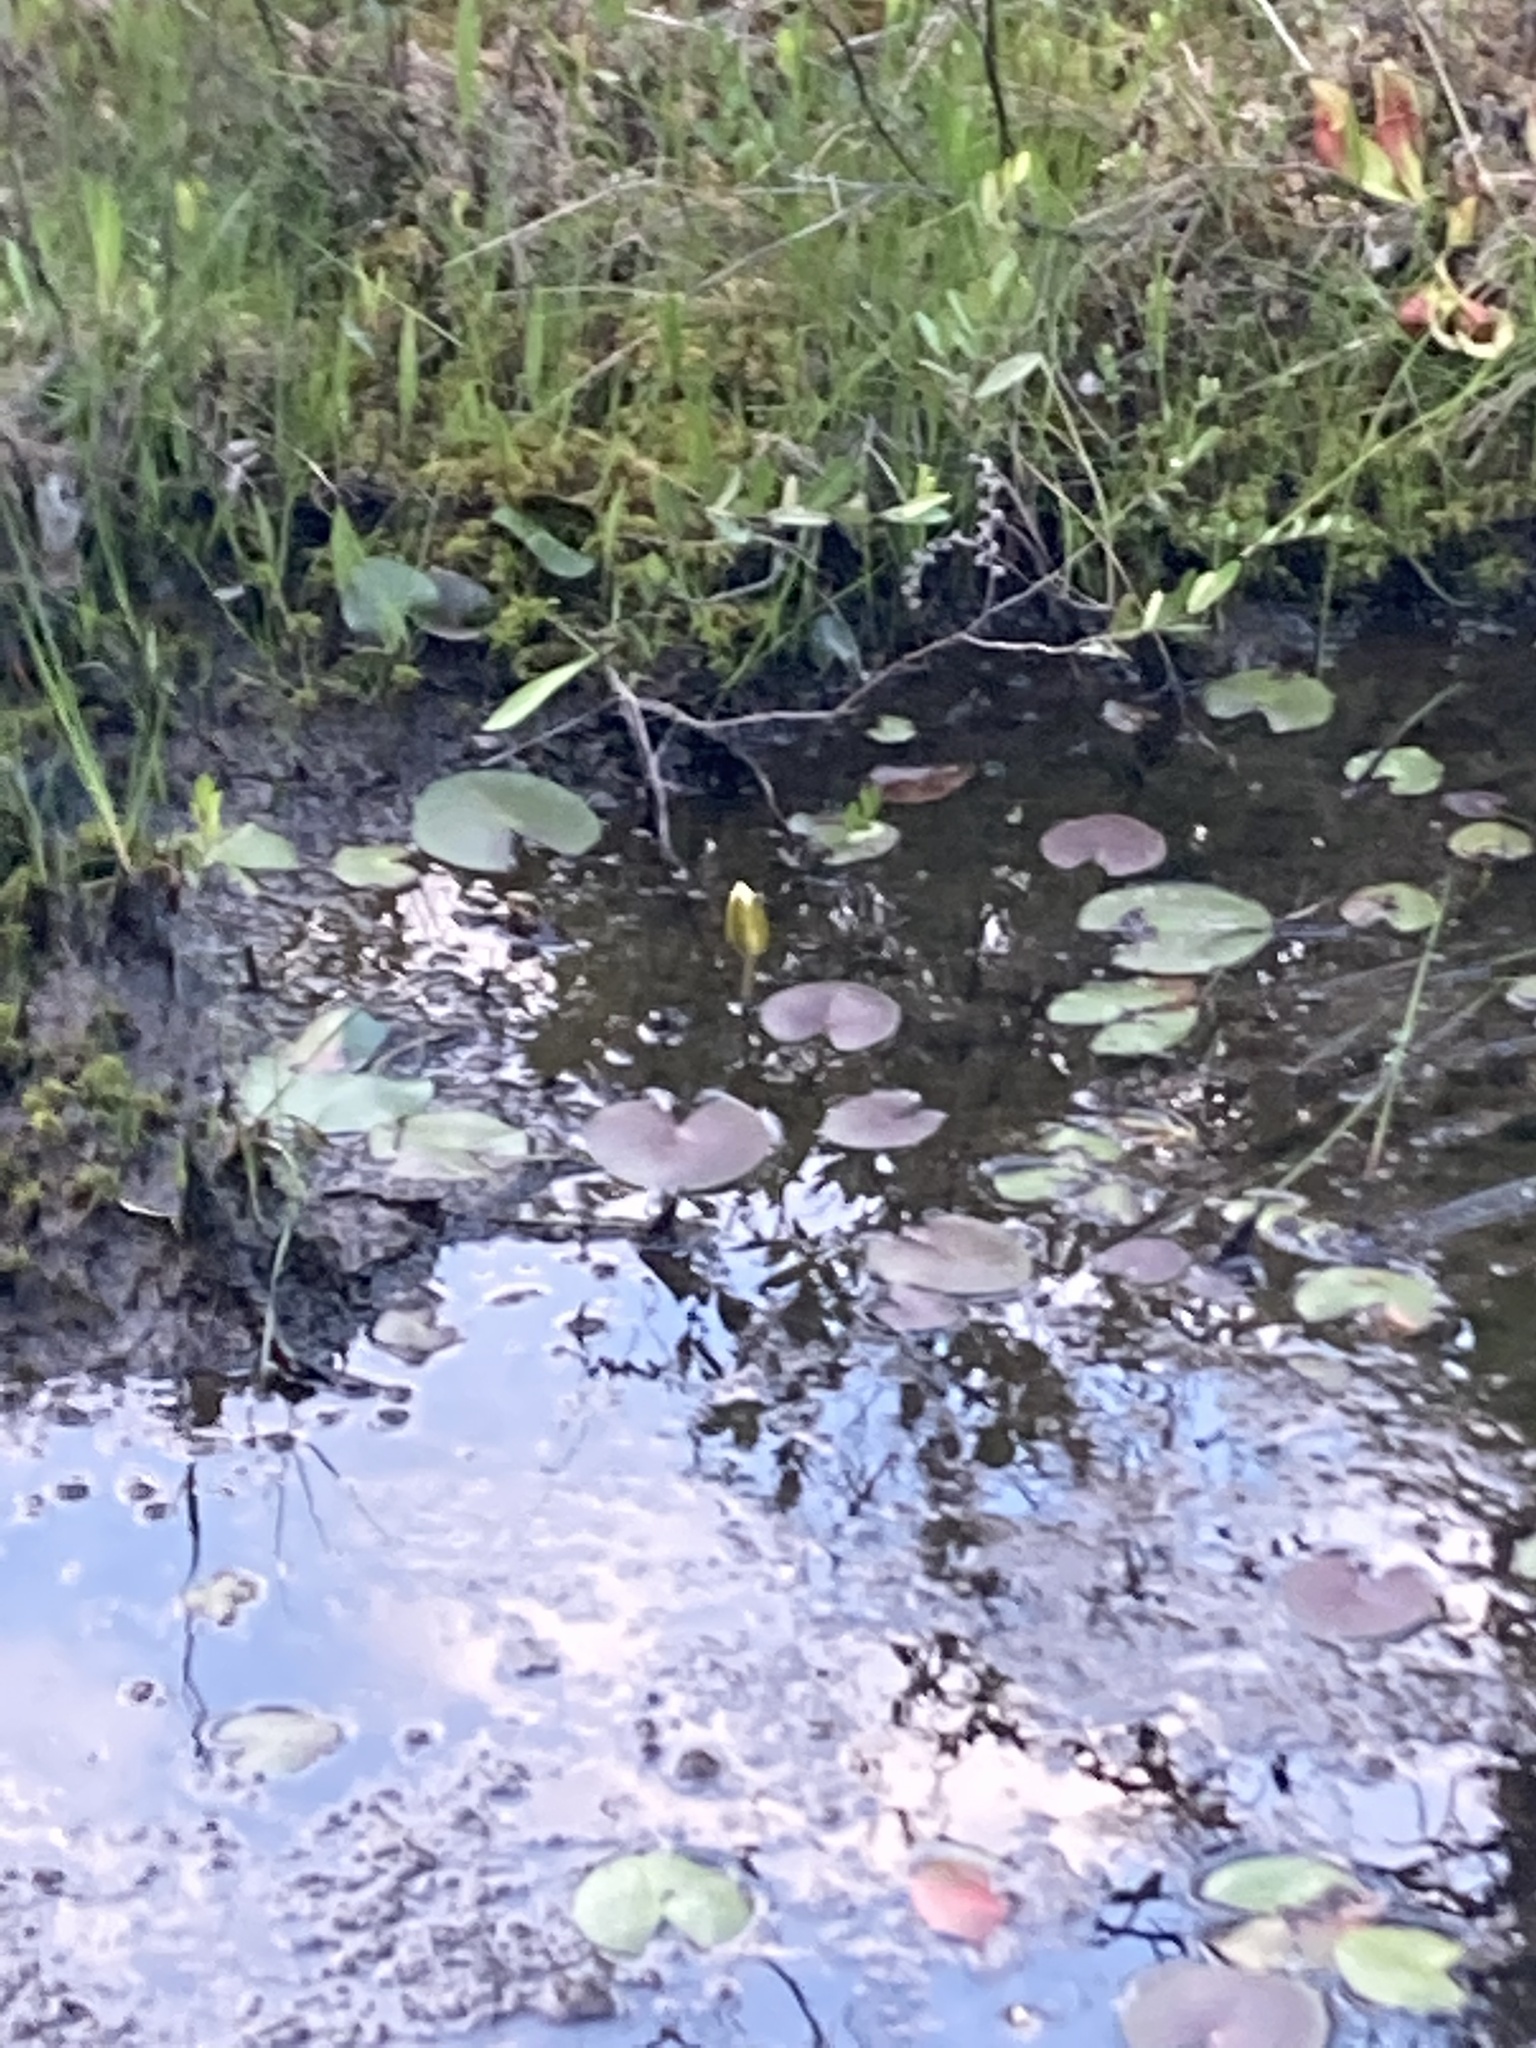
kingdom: Plantae
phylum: Tracheophyta
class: Magnoliopsida
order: Nymphaeales
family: Nymphaeaceae
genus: Nymphaea
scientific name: Nymphaea odorata
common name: Fragrant water-lily
